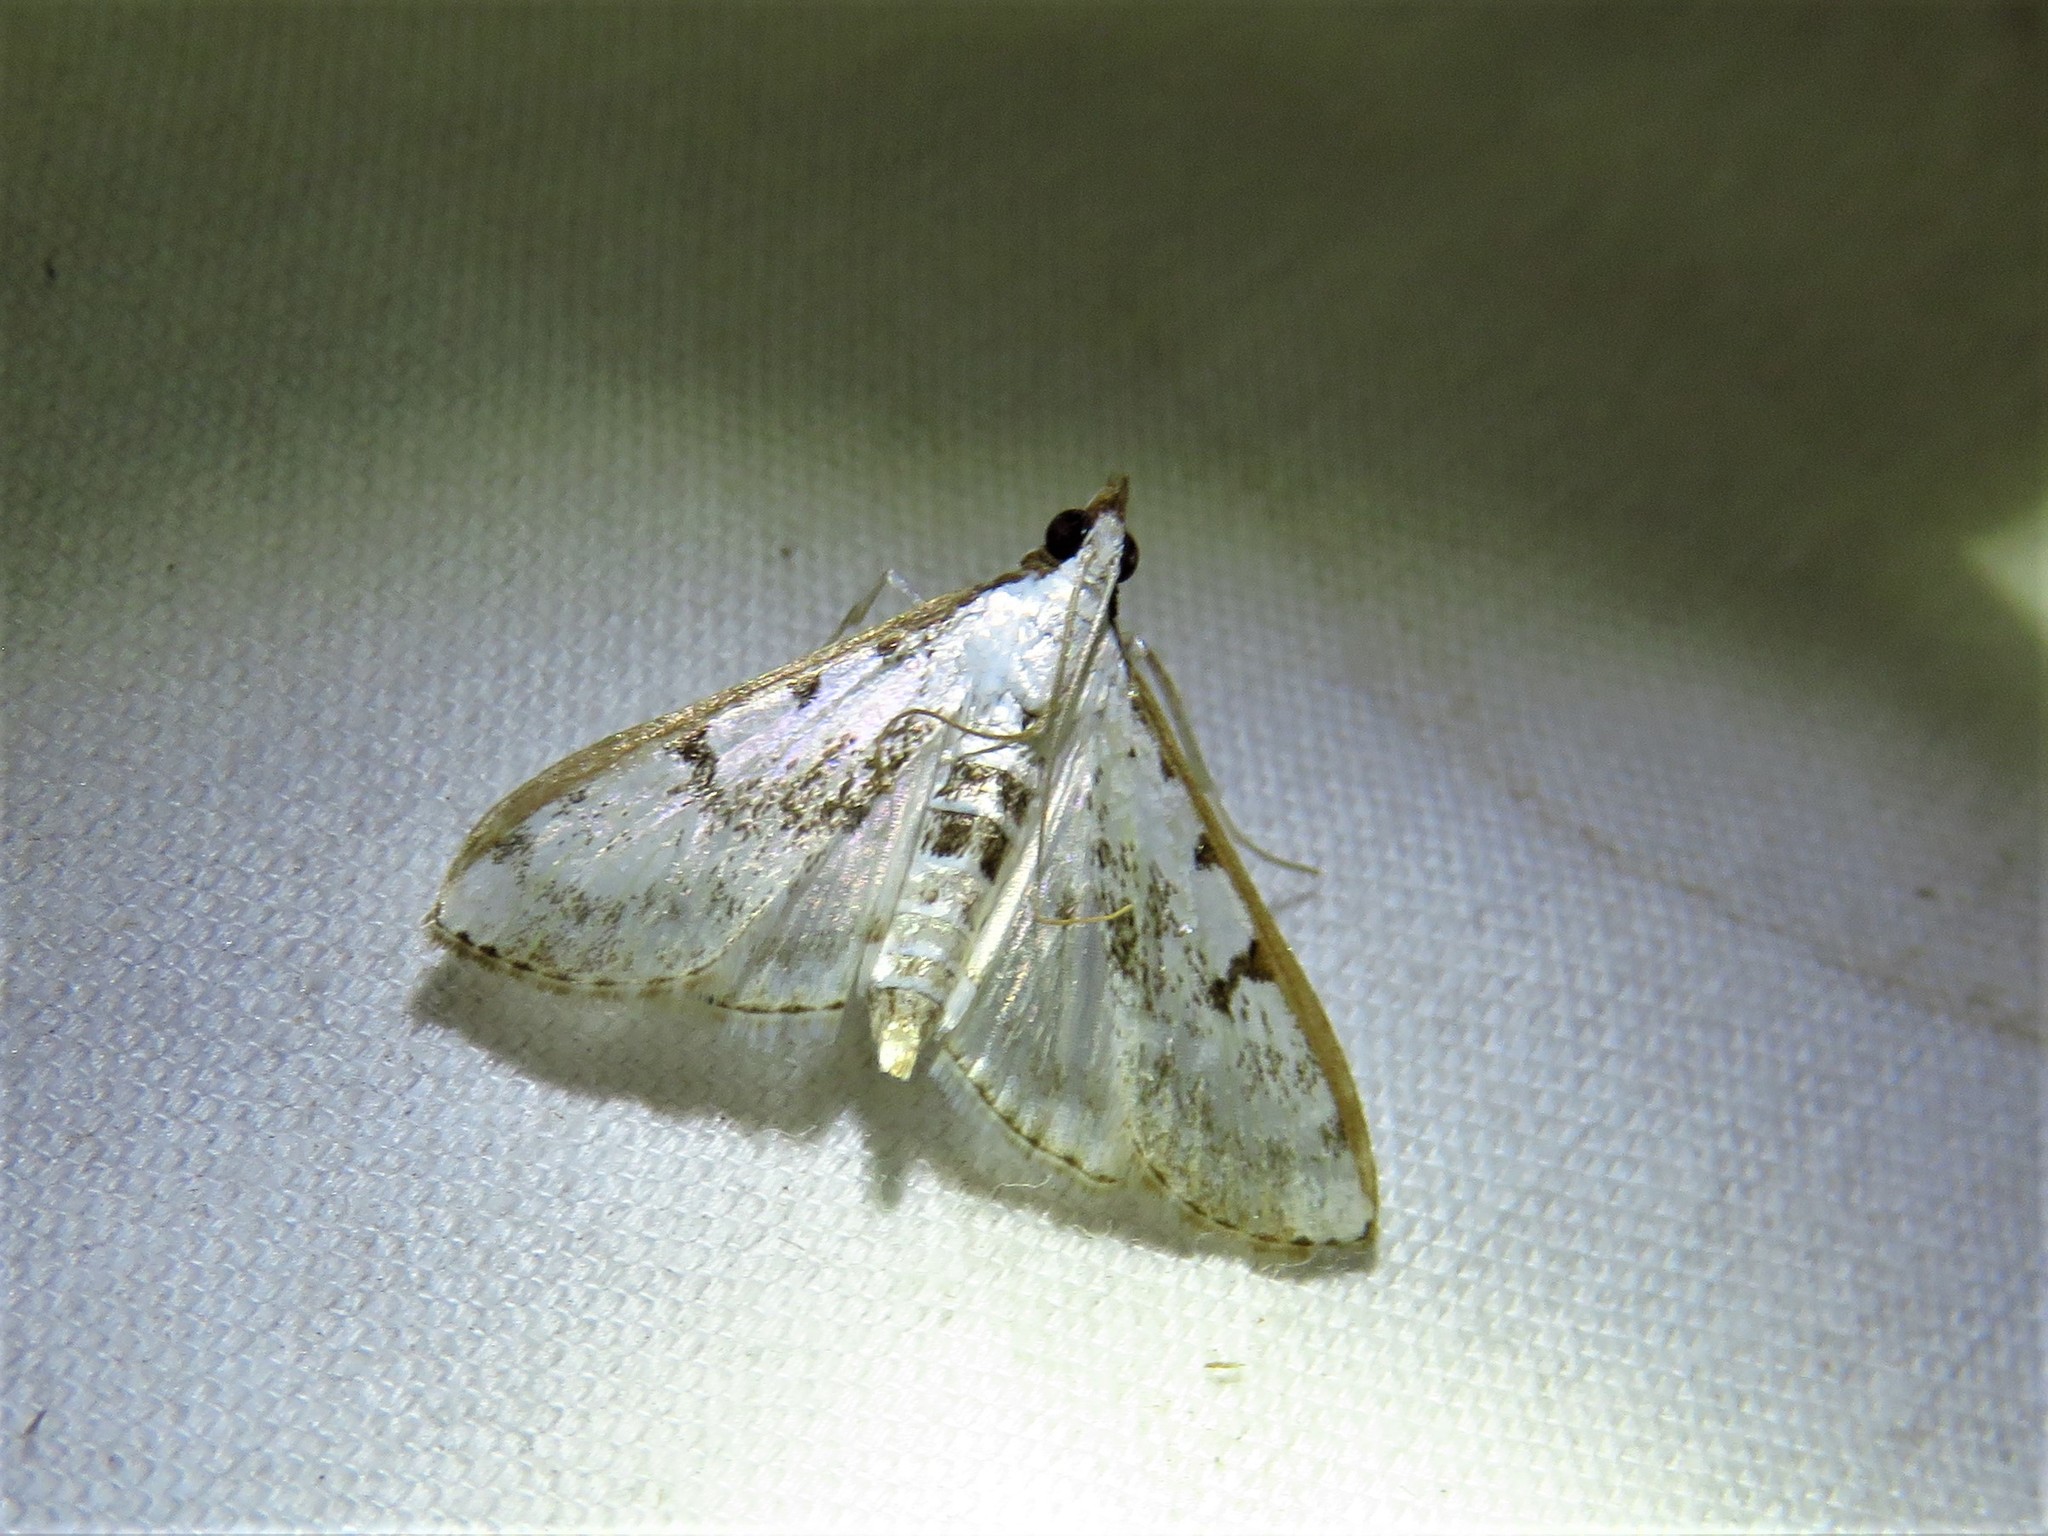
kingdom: Animalia
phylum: Arthropoda
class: Insecta
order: Lepidoptera
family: Crambidae
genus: Palpita
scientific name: Palpita gracilalis
